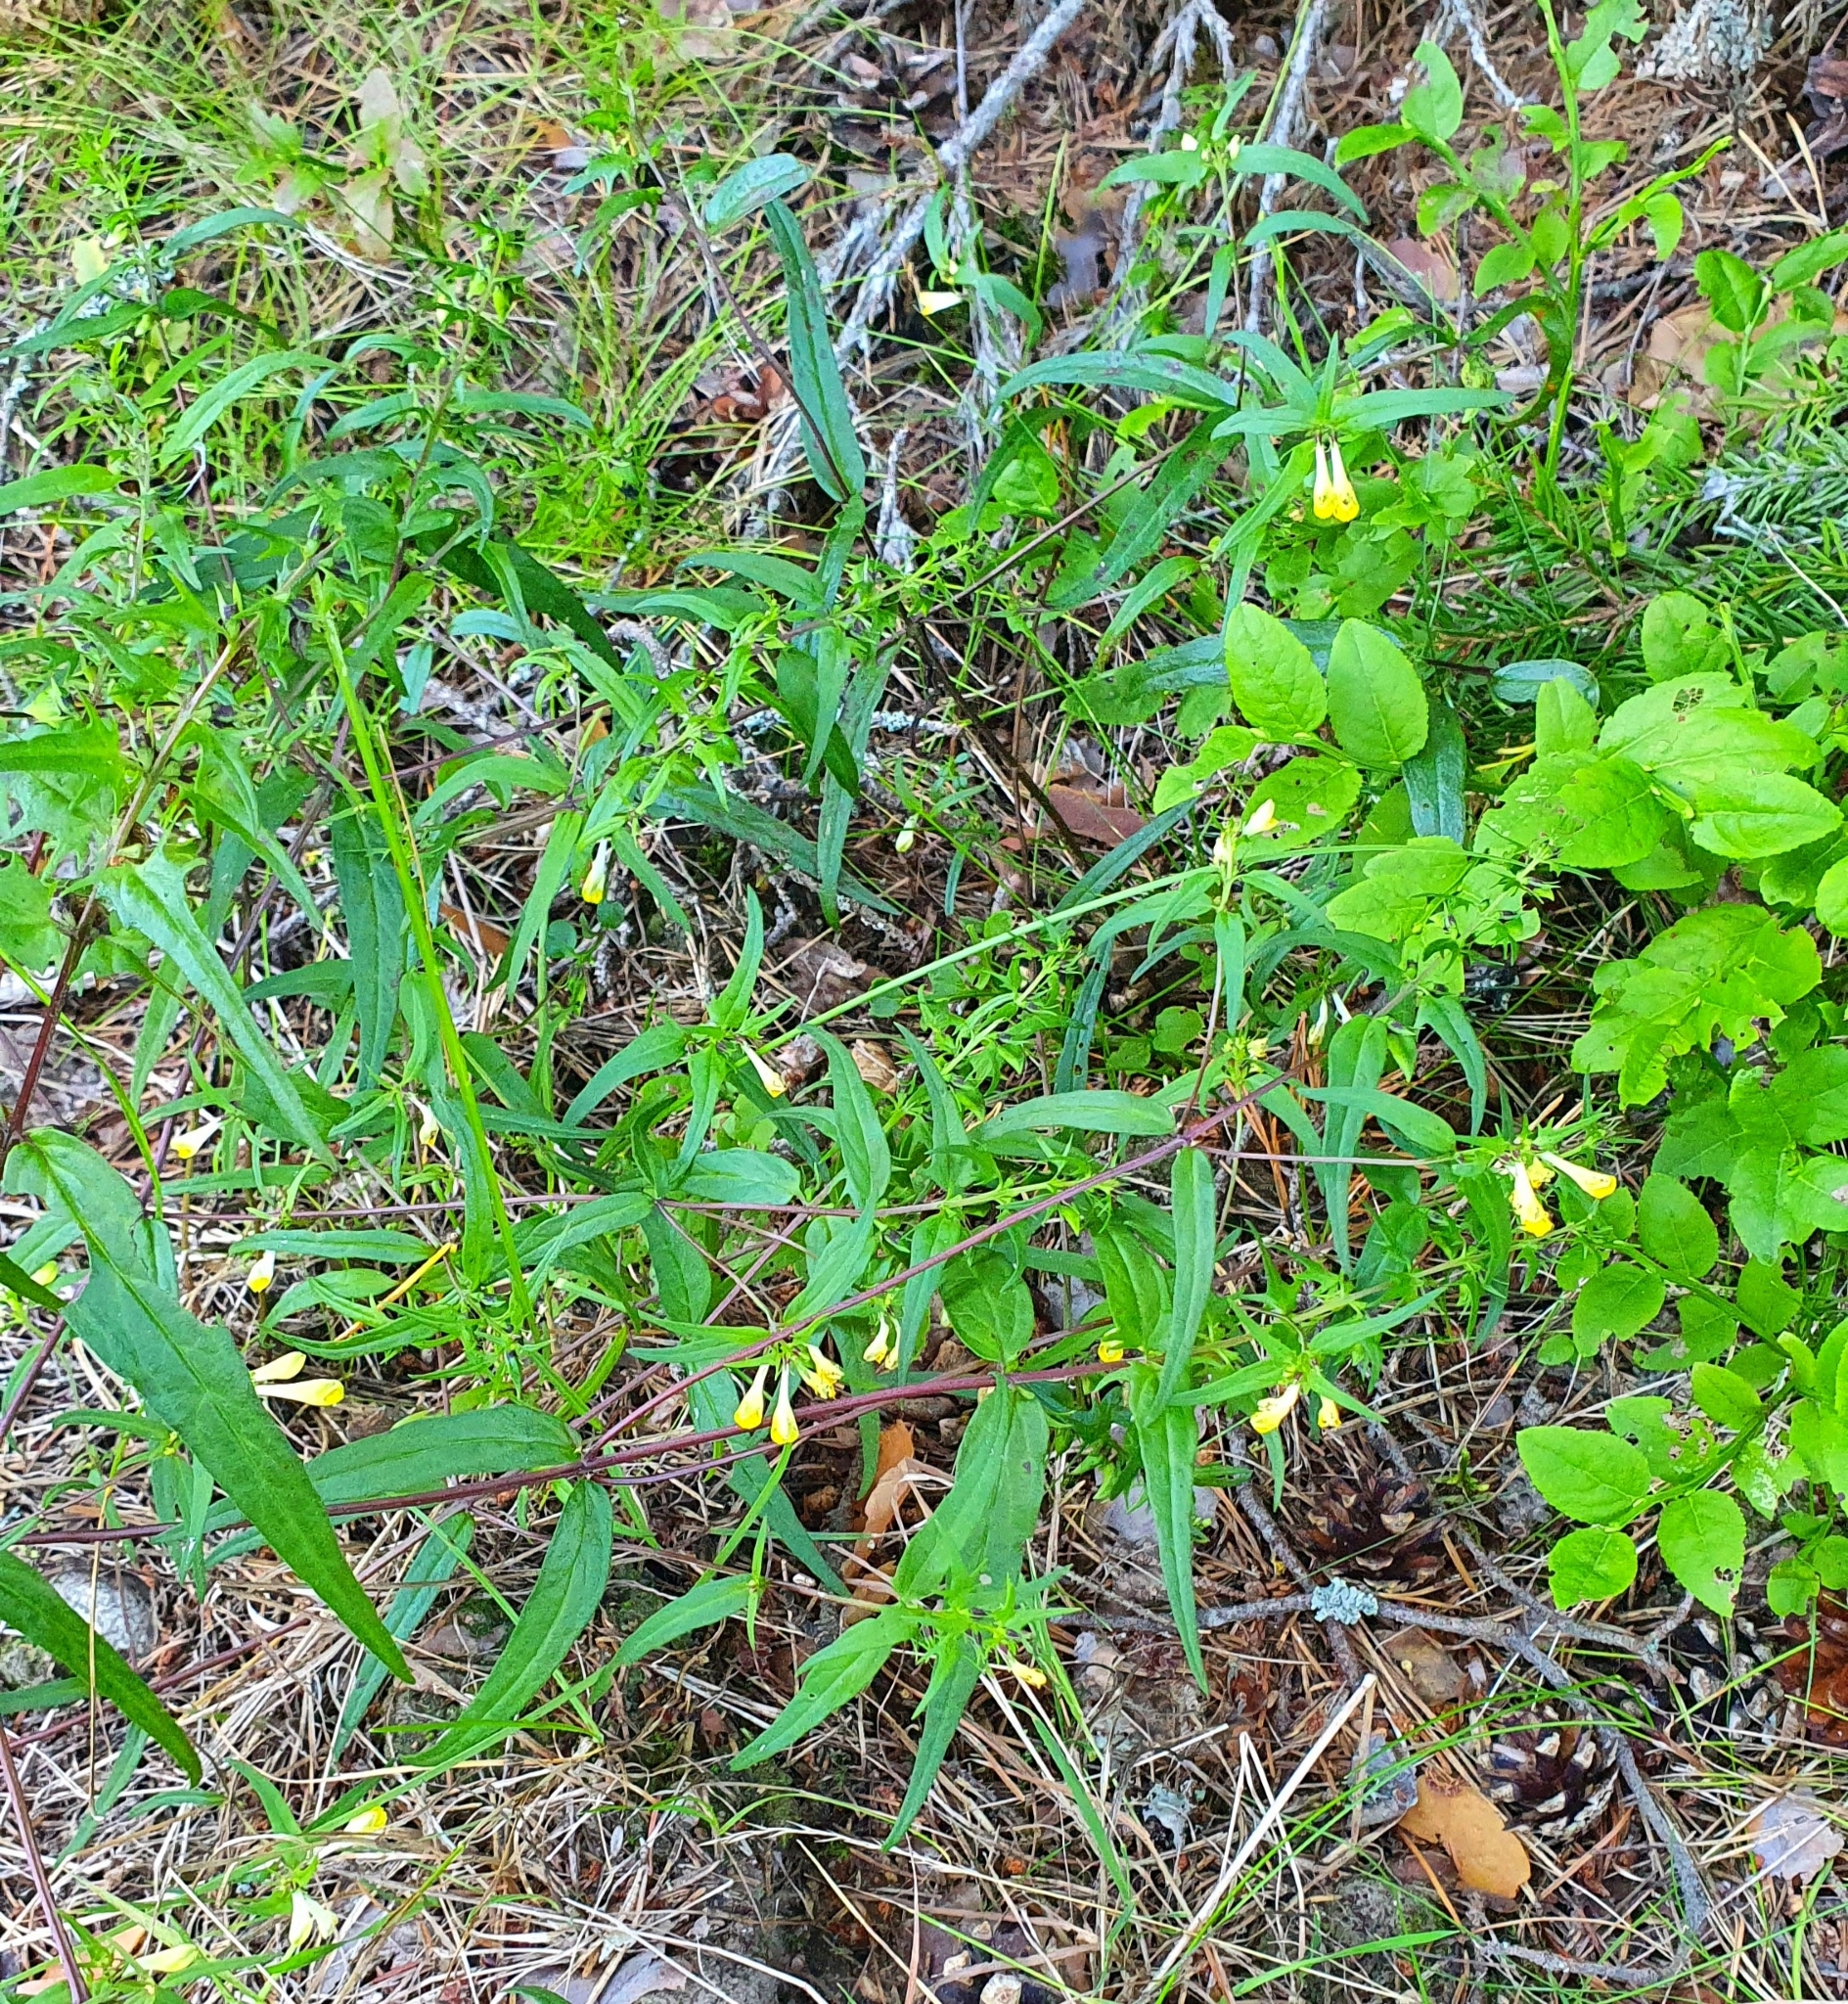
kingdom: Plantae
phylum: Tracheophyta
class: Magnoliopsida
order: Lamiales
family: Orobanchaceae
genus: Melampyrum
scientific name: Melampyrum pratense
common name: Common cow-wheat
